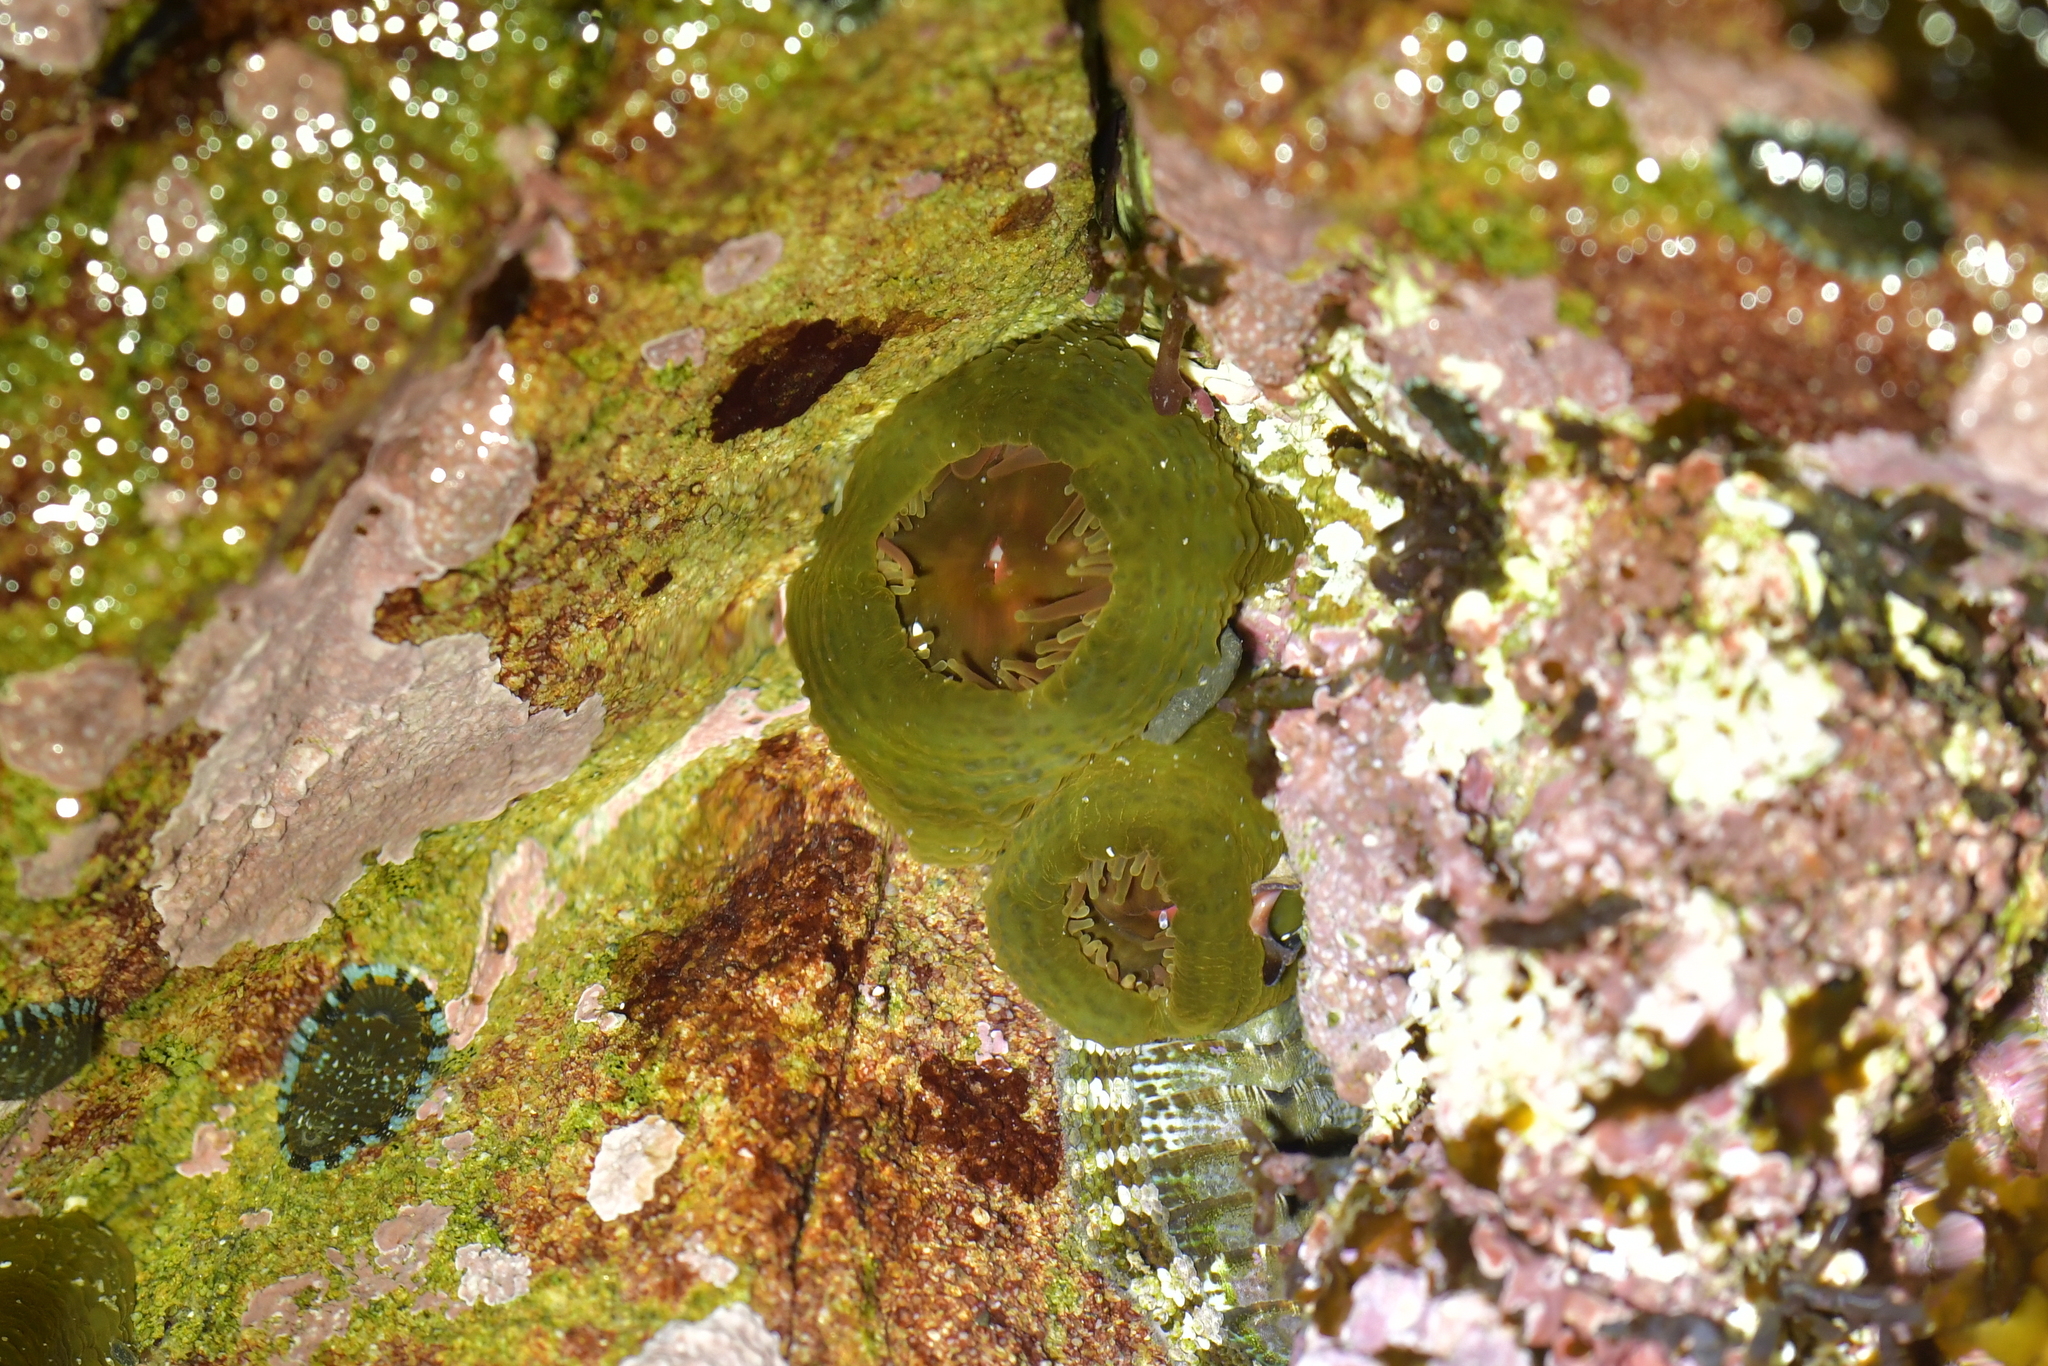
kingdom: Animalia
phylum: Cnidaria
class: Anthozoa
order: Actiniaria
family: Actiniidae
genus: Isactinia
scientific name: Isactinia olivacea
